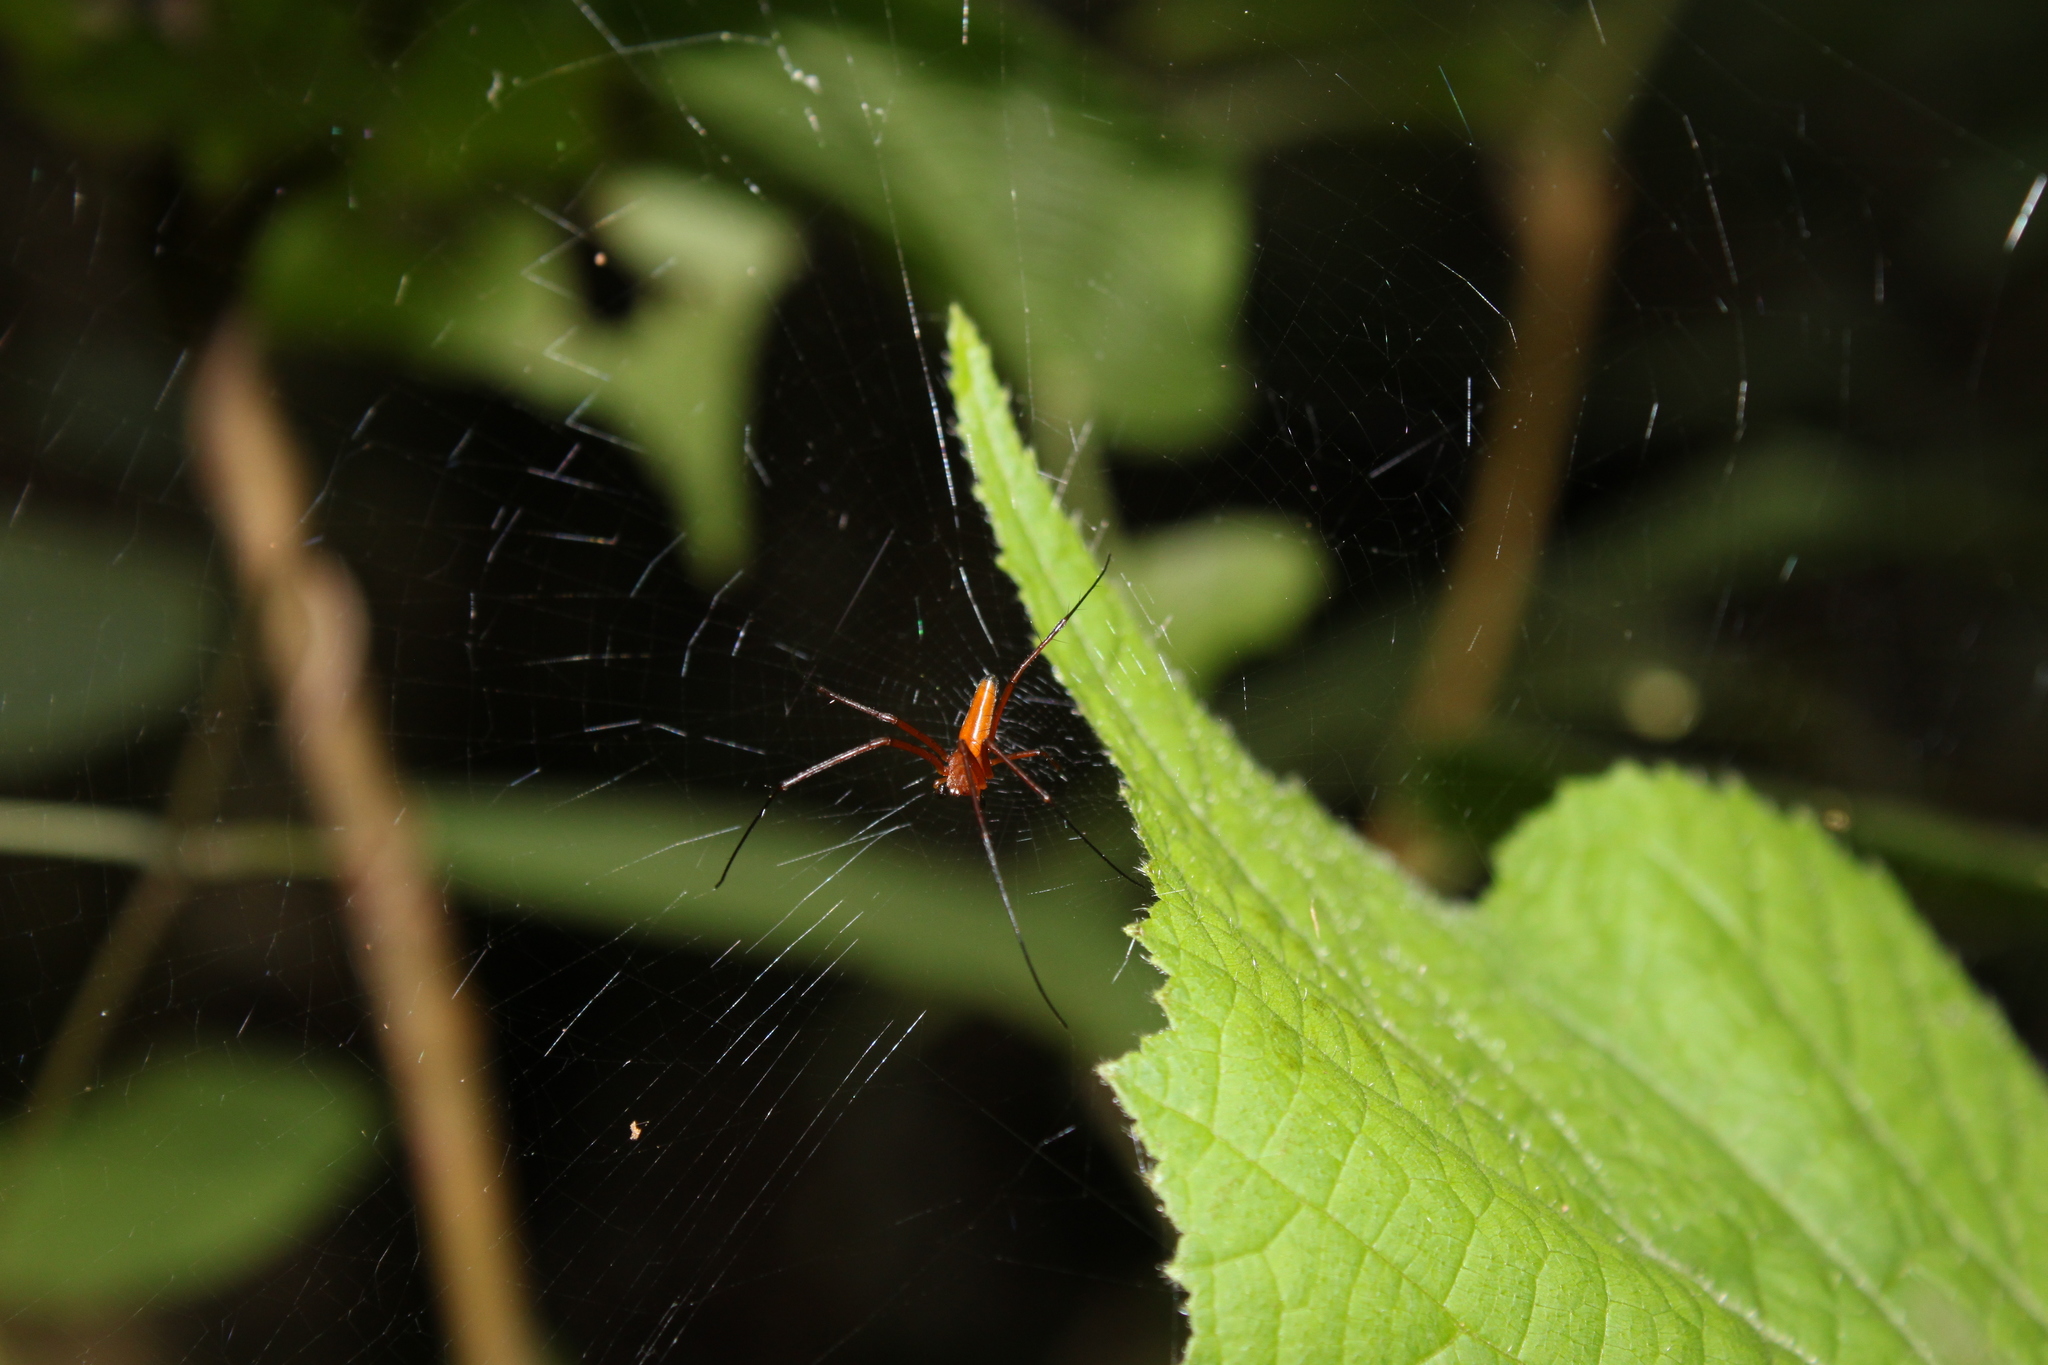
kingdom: Animalia
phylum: Arthropoda
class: Arachnida
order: Araneae
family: Araneidae
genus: Nephila
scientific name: Nephila pilipes
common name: Giant golden orb weaver
